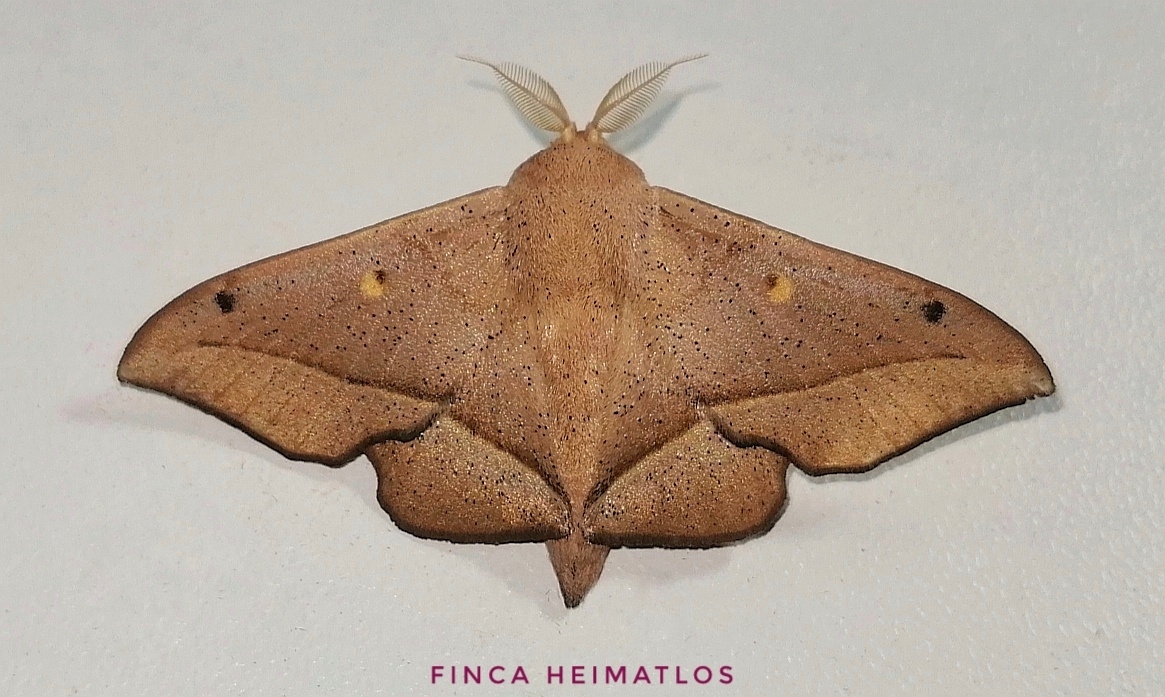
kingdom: Animalia
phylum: Arthropoda
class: Insecta
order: Lepidoptera
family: Mimallonidae
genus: Druentica
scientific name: Druentica partha
